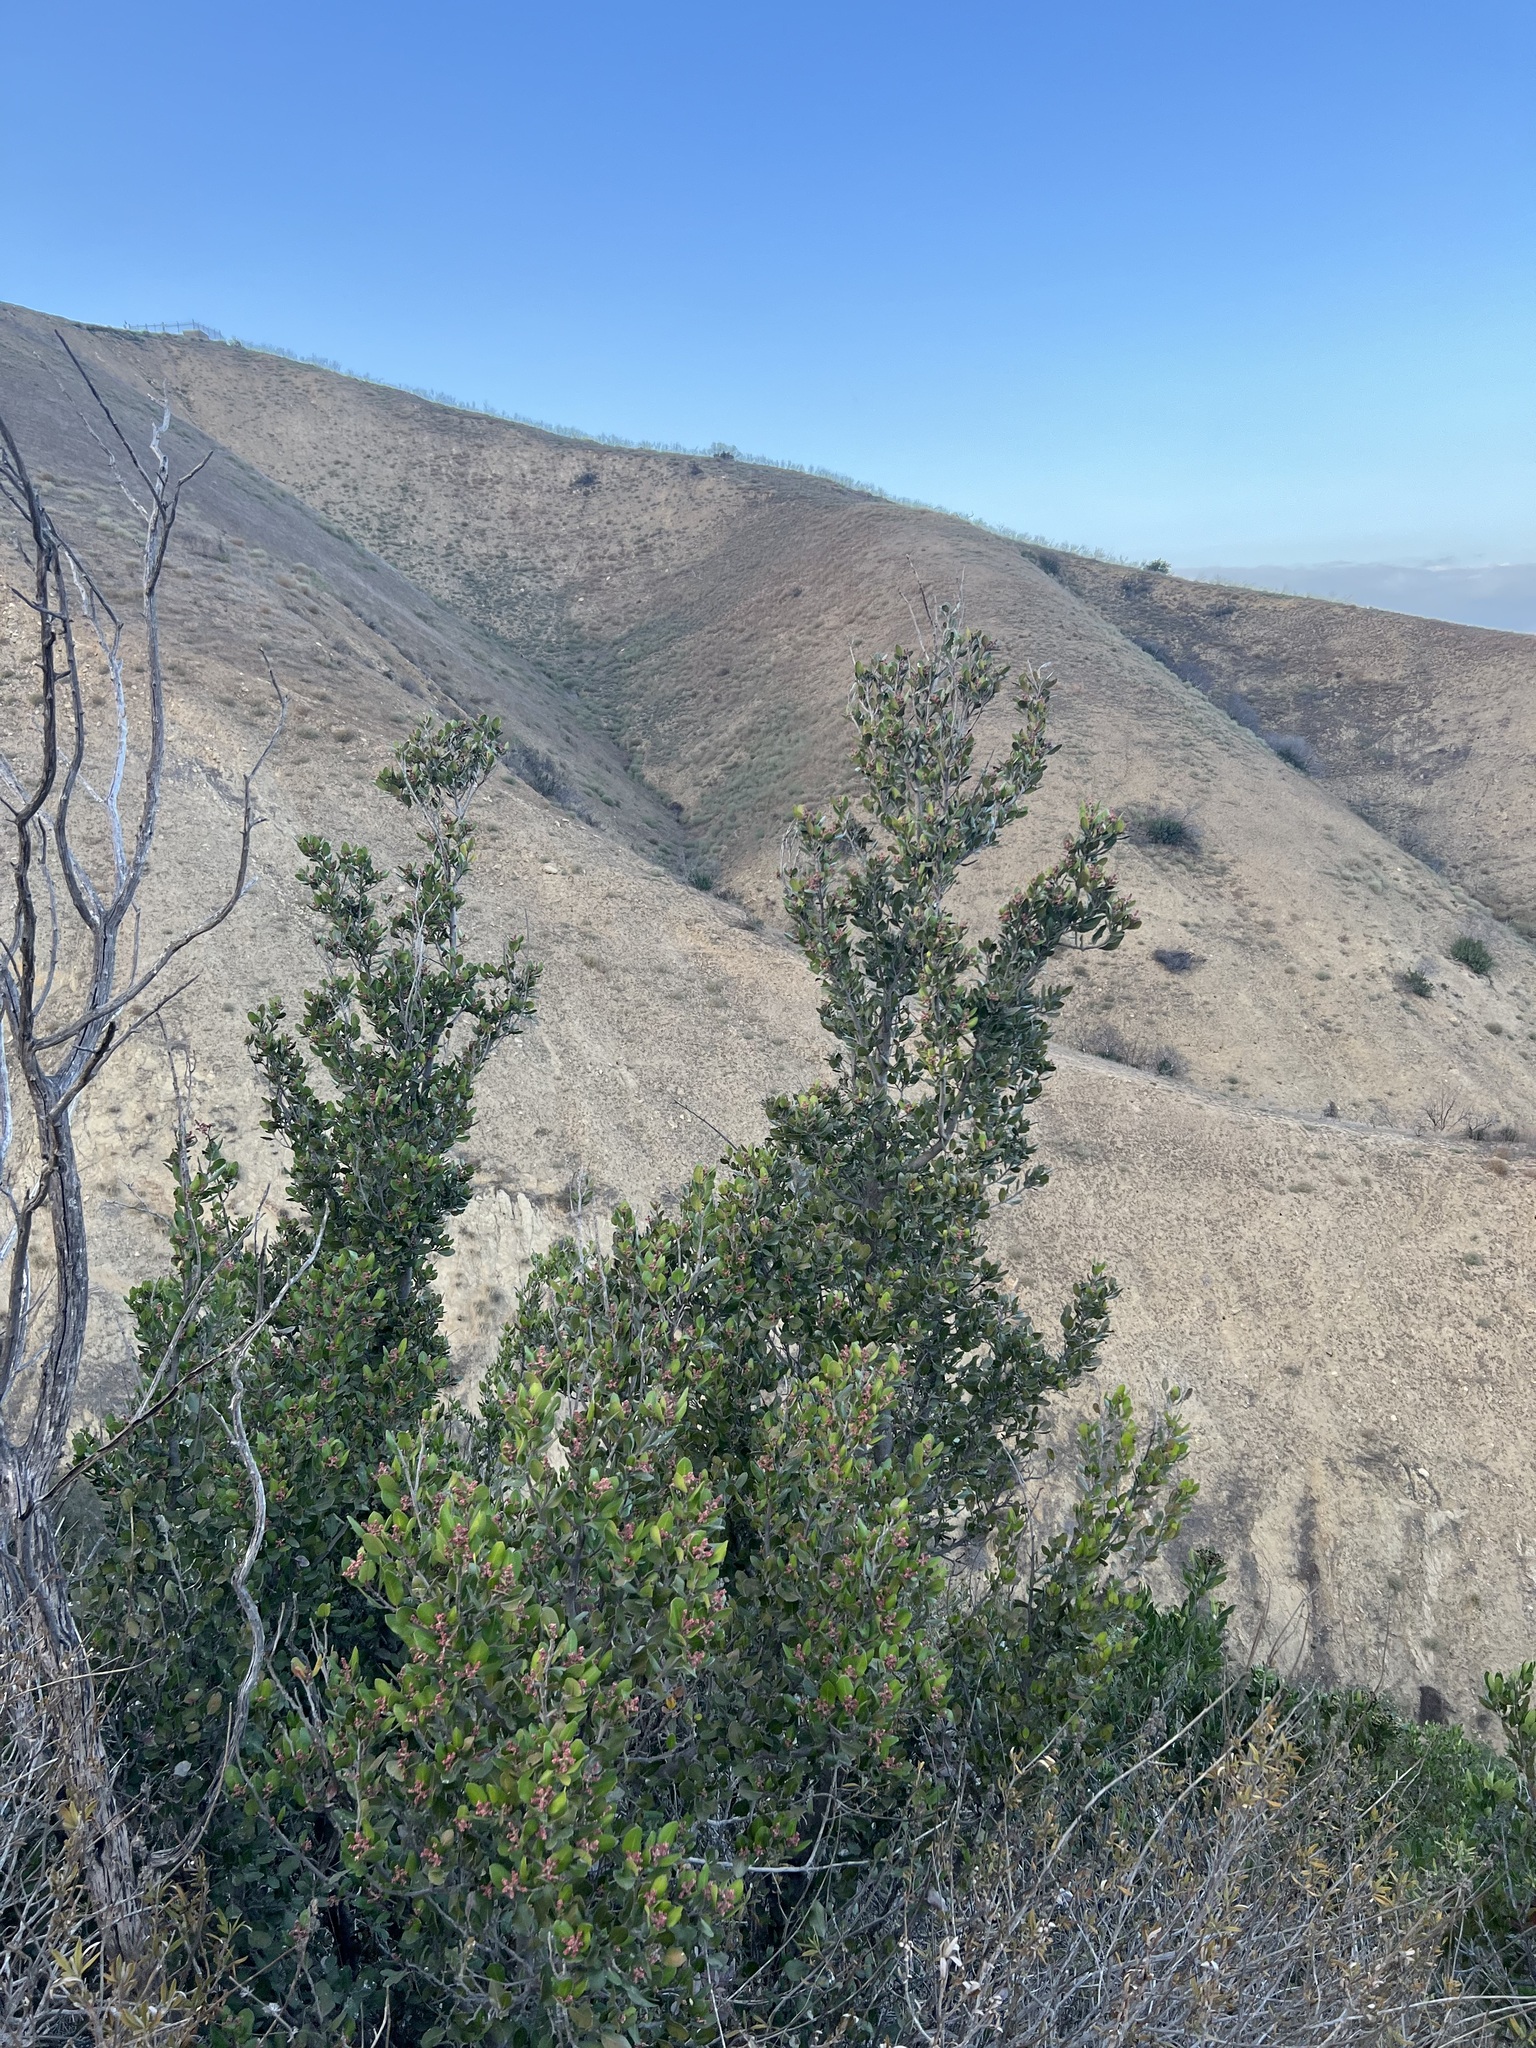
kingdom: Plantae
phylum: Tracheophyta
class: Magnoliopsida
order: Sapindales
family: Anacardiaceae
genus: Rhus
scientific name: Rhus integrifolia
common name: Lemonade sumac
